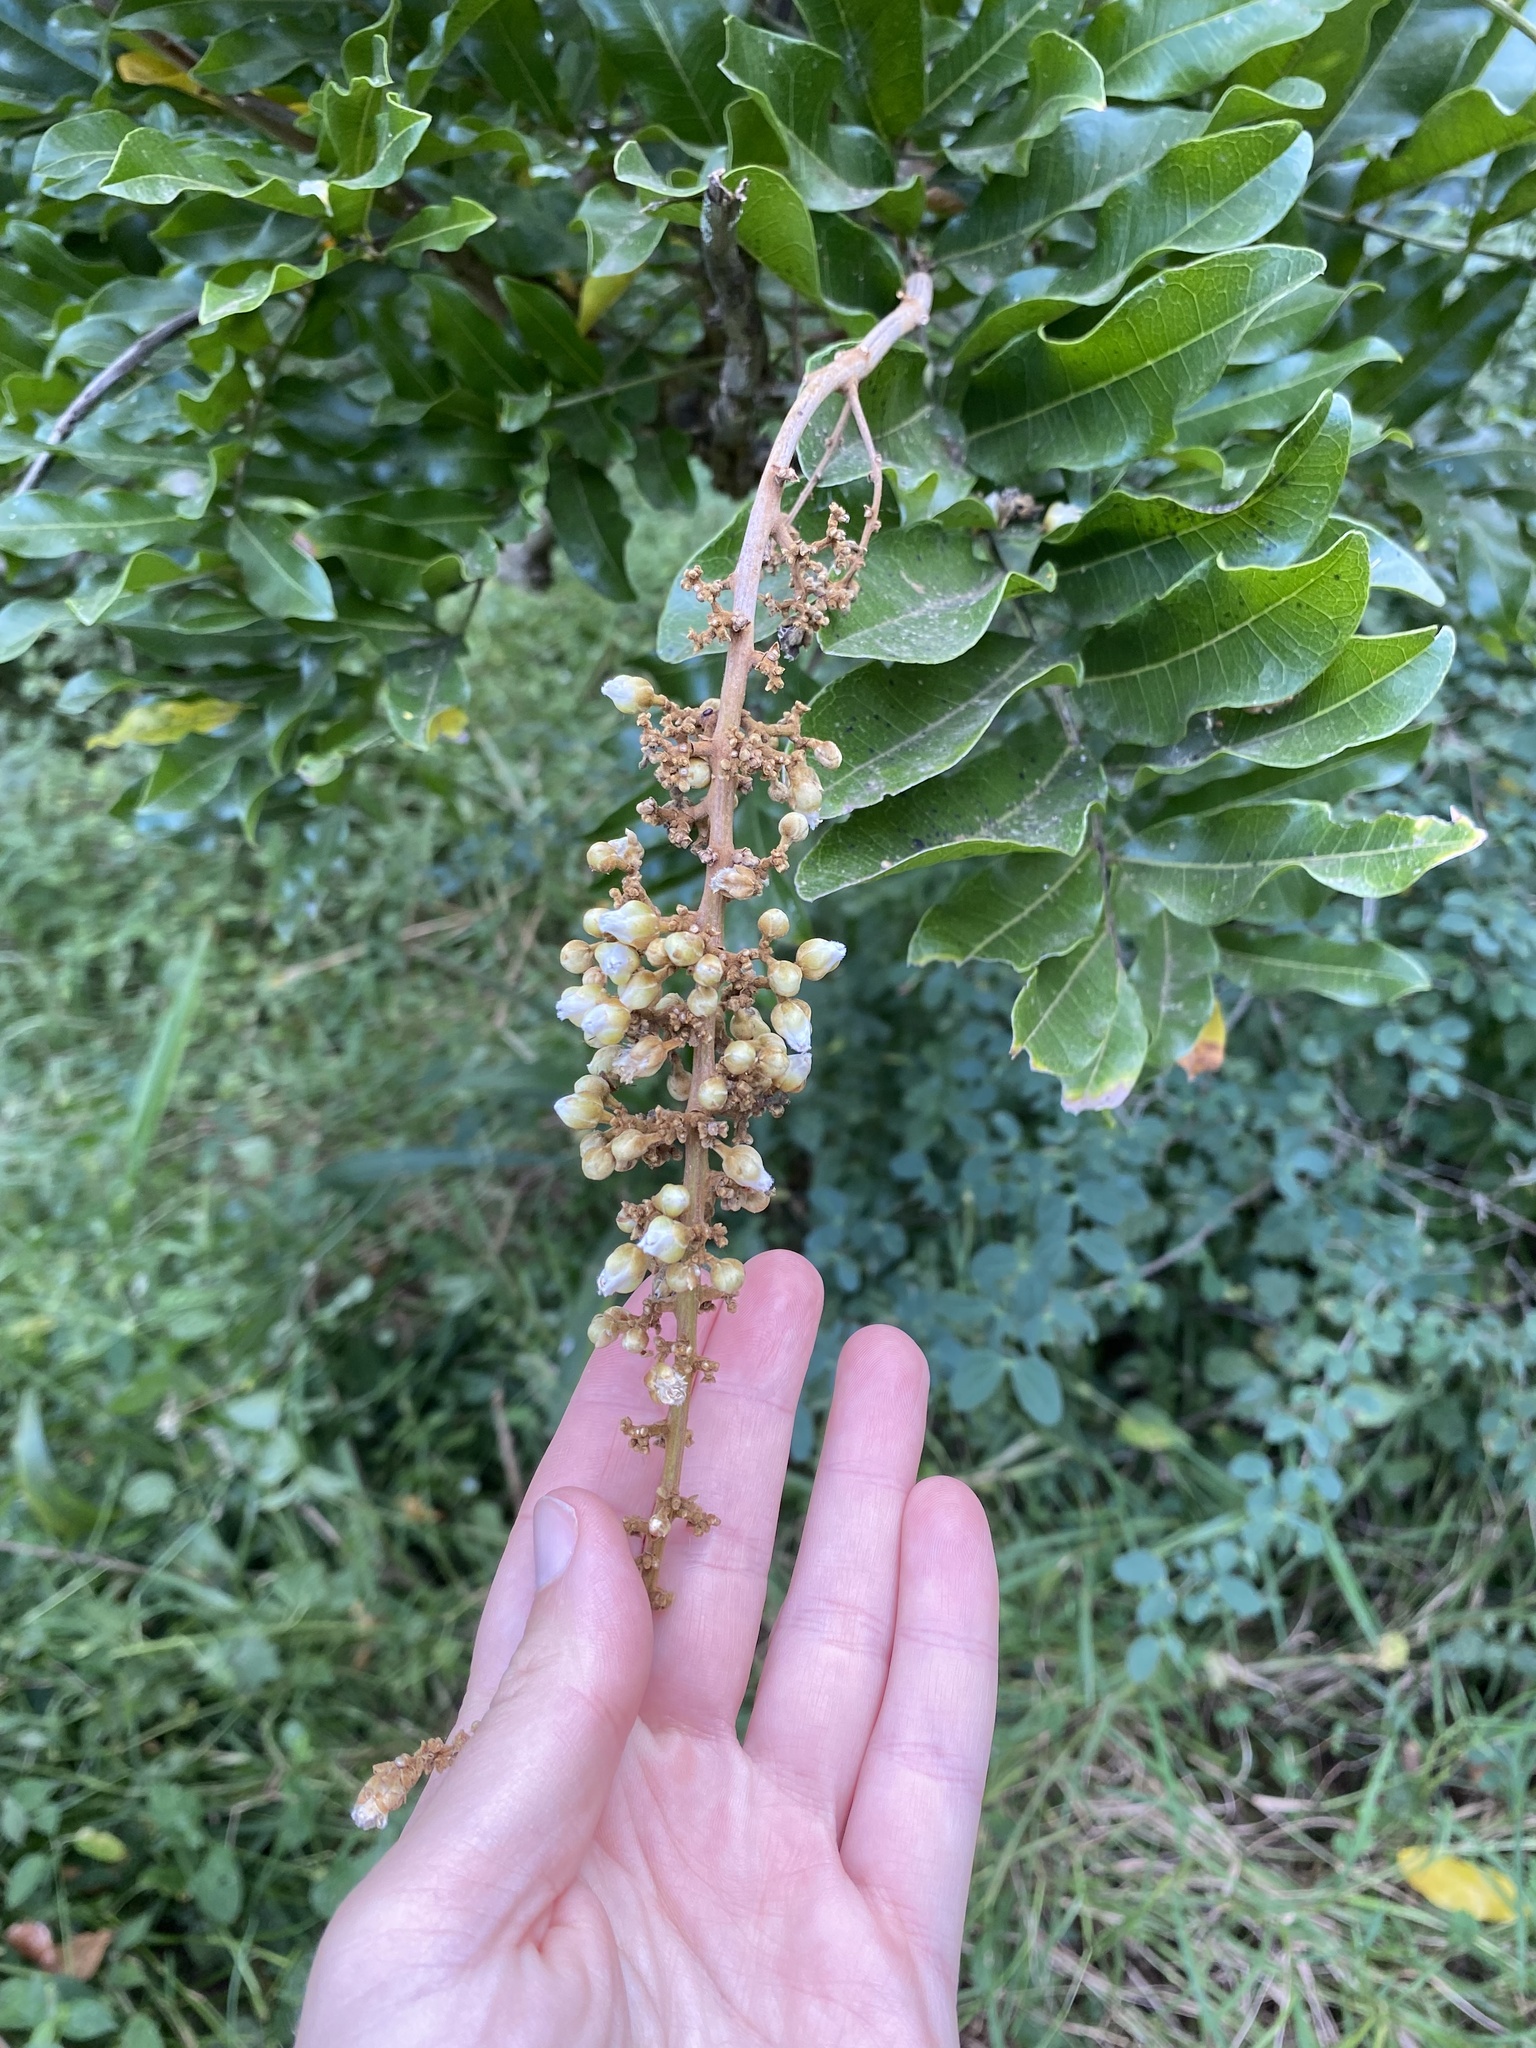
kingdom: Plantae
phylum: Tracheophyta
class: Magnoliopsida
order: Sapindales
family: Sapindaceae
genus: Deinbollia
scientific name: Deinbollia oblongifolia
